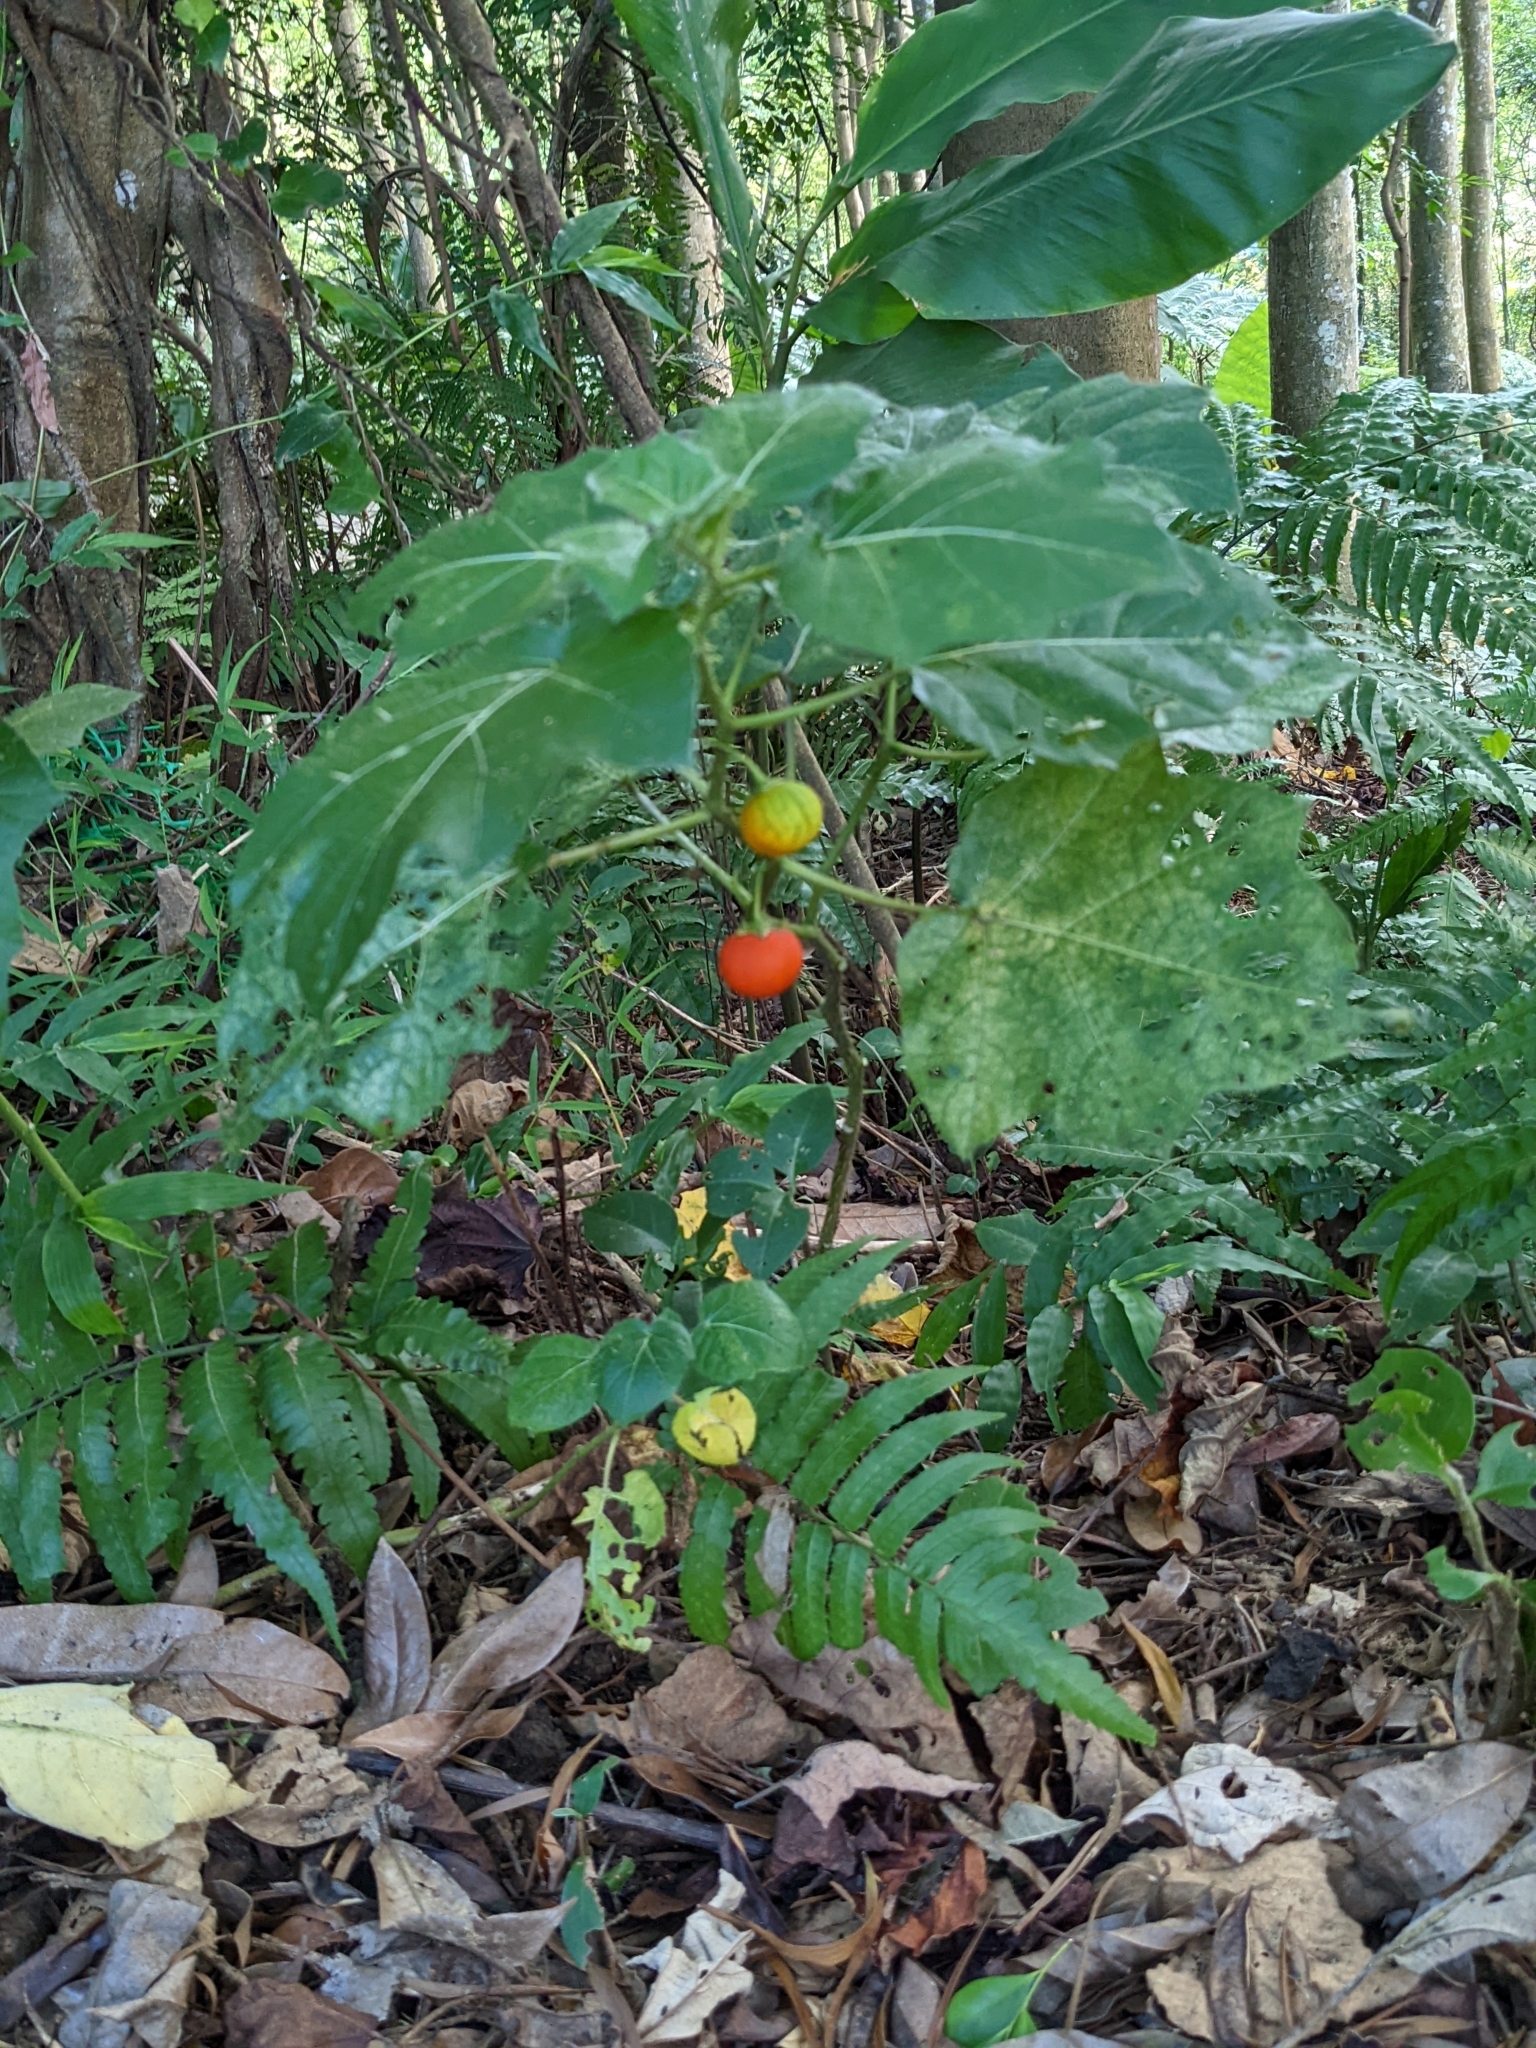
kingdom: Plantae
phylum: Tracheophyta
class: Magnoliopsida
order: Solanales
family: Solanaceae
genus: Solanum
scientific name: Solanum capsicoides
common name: Cockroach berry
